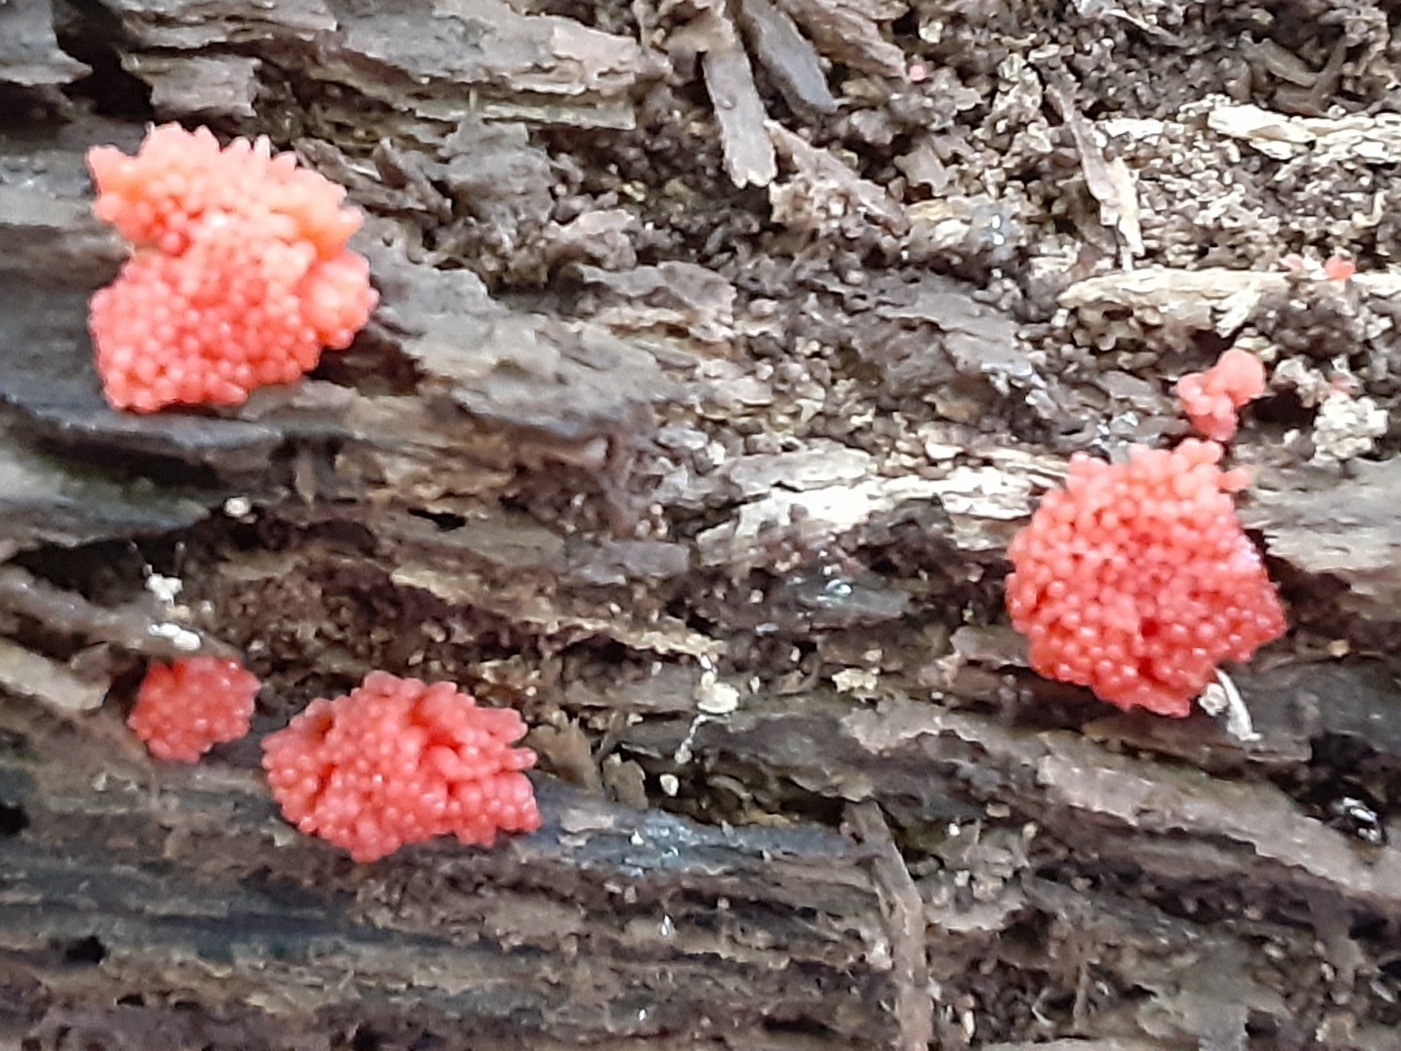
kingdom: Protozoa
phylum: Mycetozoa
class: Myxomycetes
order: Cribrariales
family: Tubiferaceae
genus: Tubifera
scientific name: Tubifera ferruginosa
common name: Red raspberry slime mold
